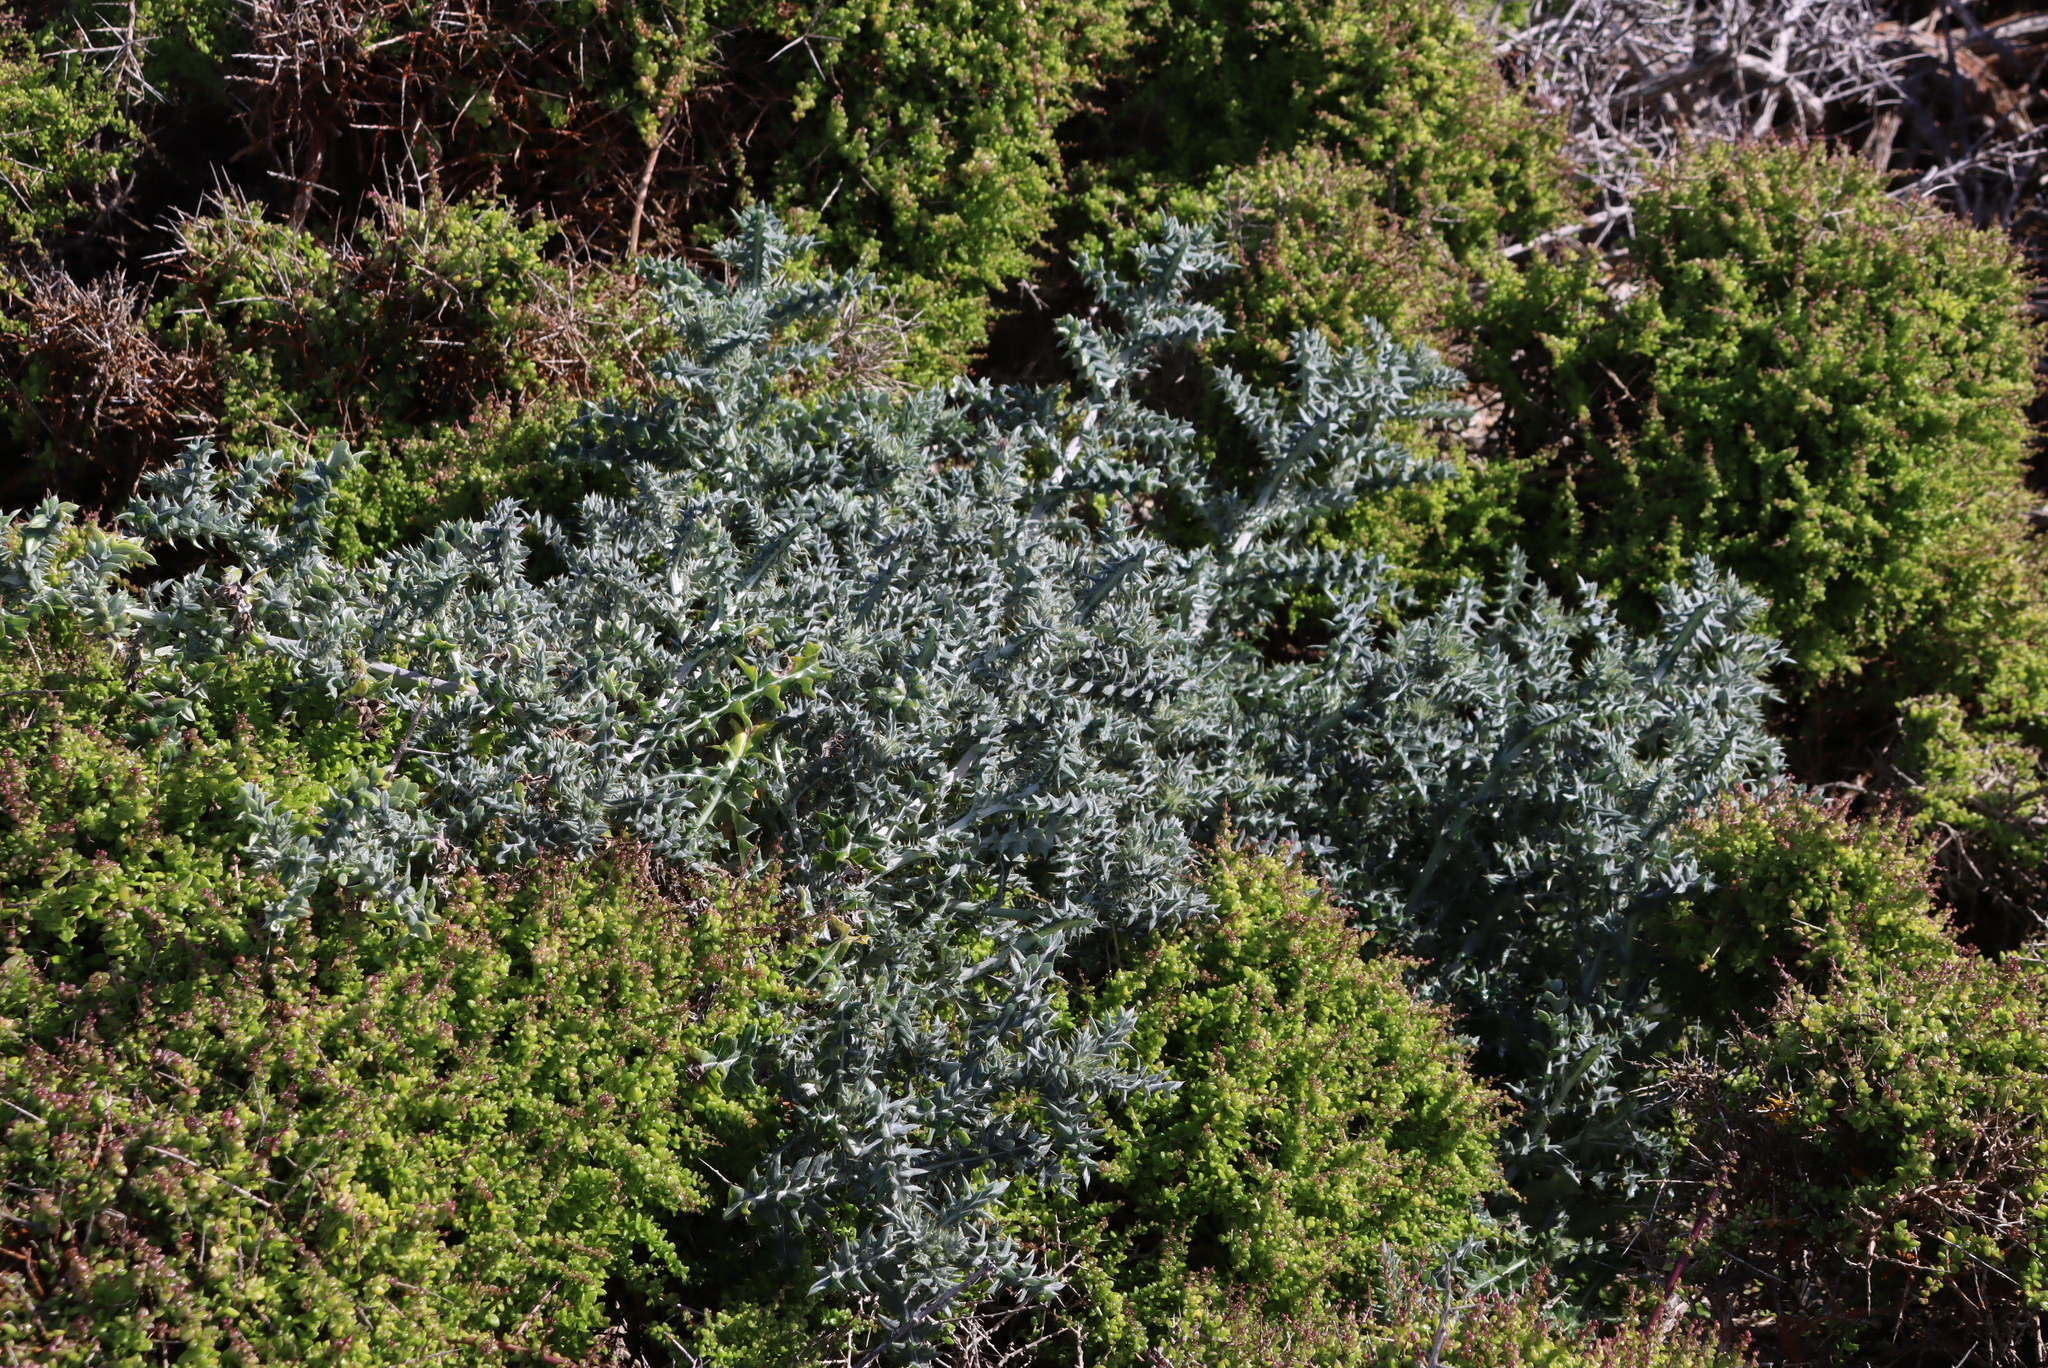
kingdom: Plantae
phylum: Tracheophyta
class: Magnoliopsida
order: Asterales
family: Asteraceae
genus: Berkheya
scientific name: Berkheya rigida
